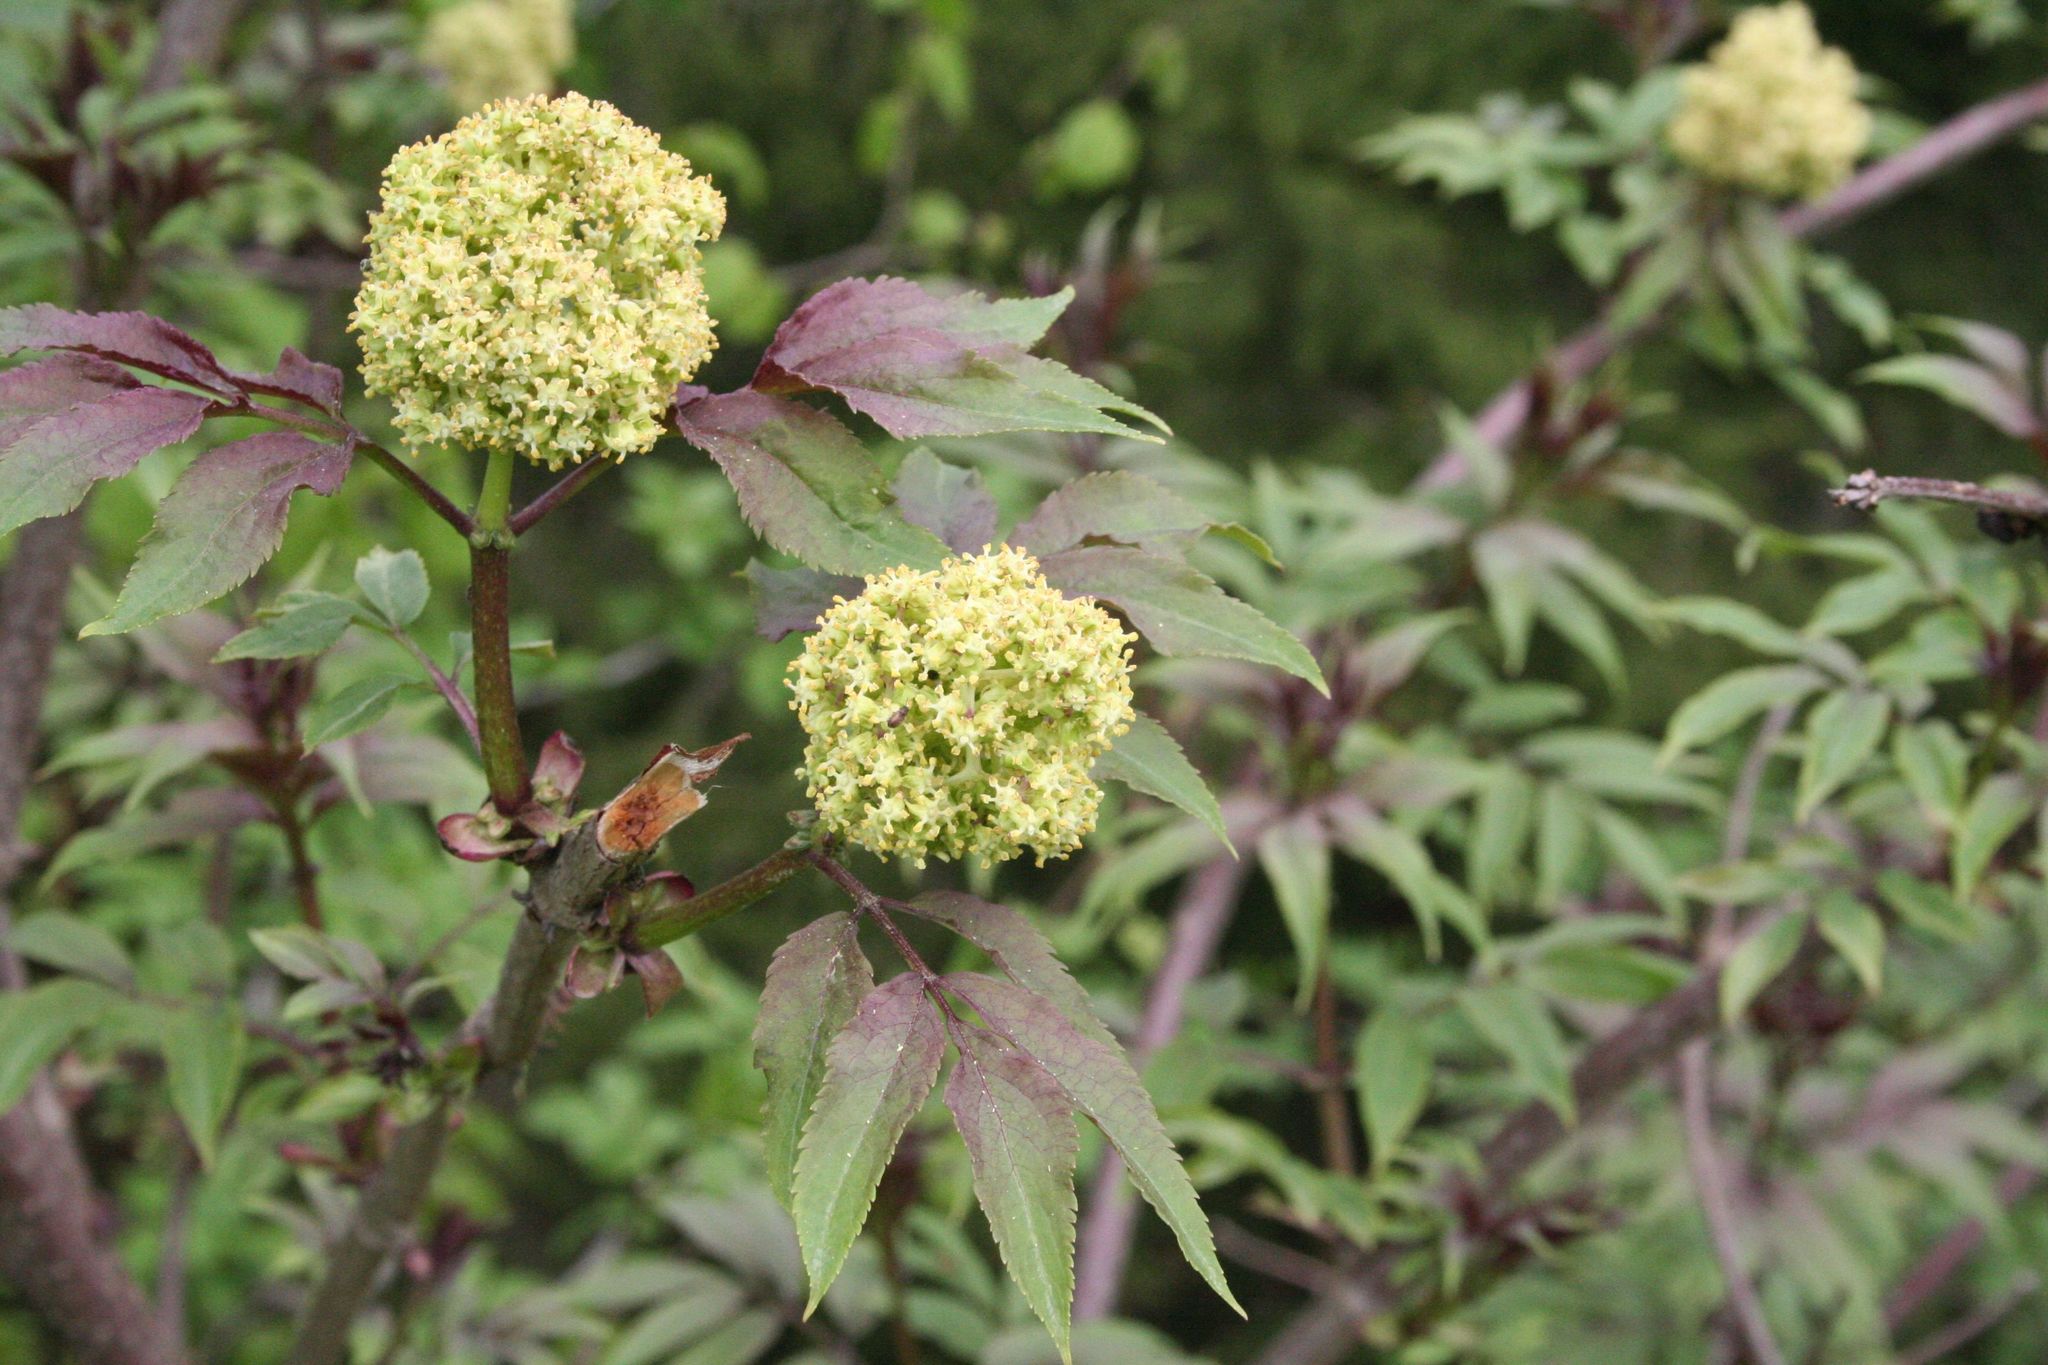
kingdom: Plantae
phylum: Tracheophyta
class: Magnoliopsida
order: Dipsacales
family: Viburnaceae
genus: Sambucus
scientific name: Sambucus racemosa
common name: Red-berried elder
